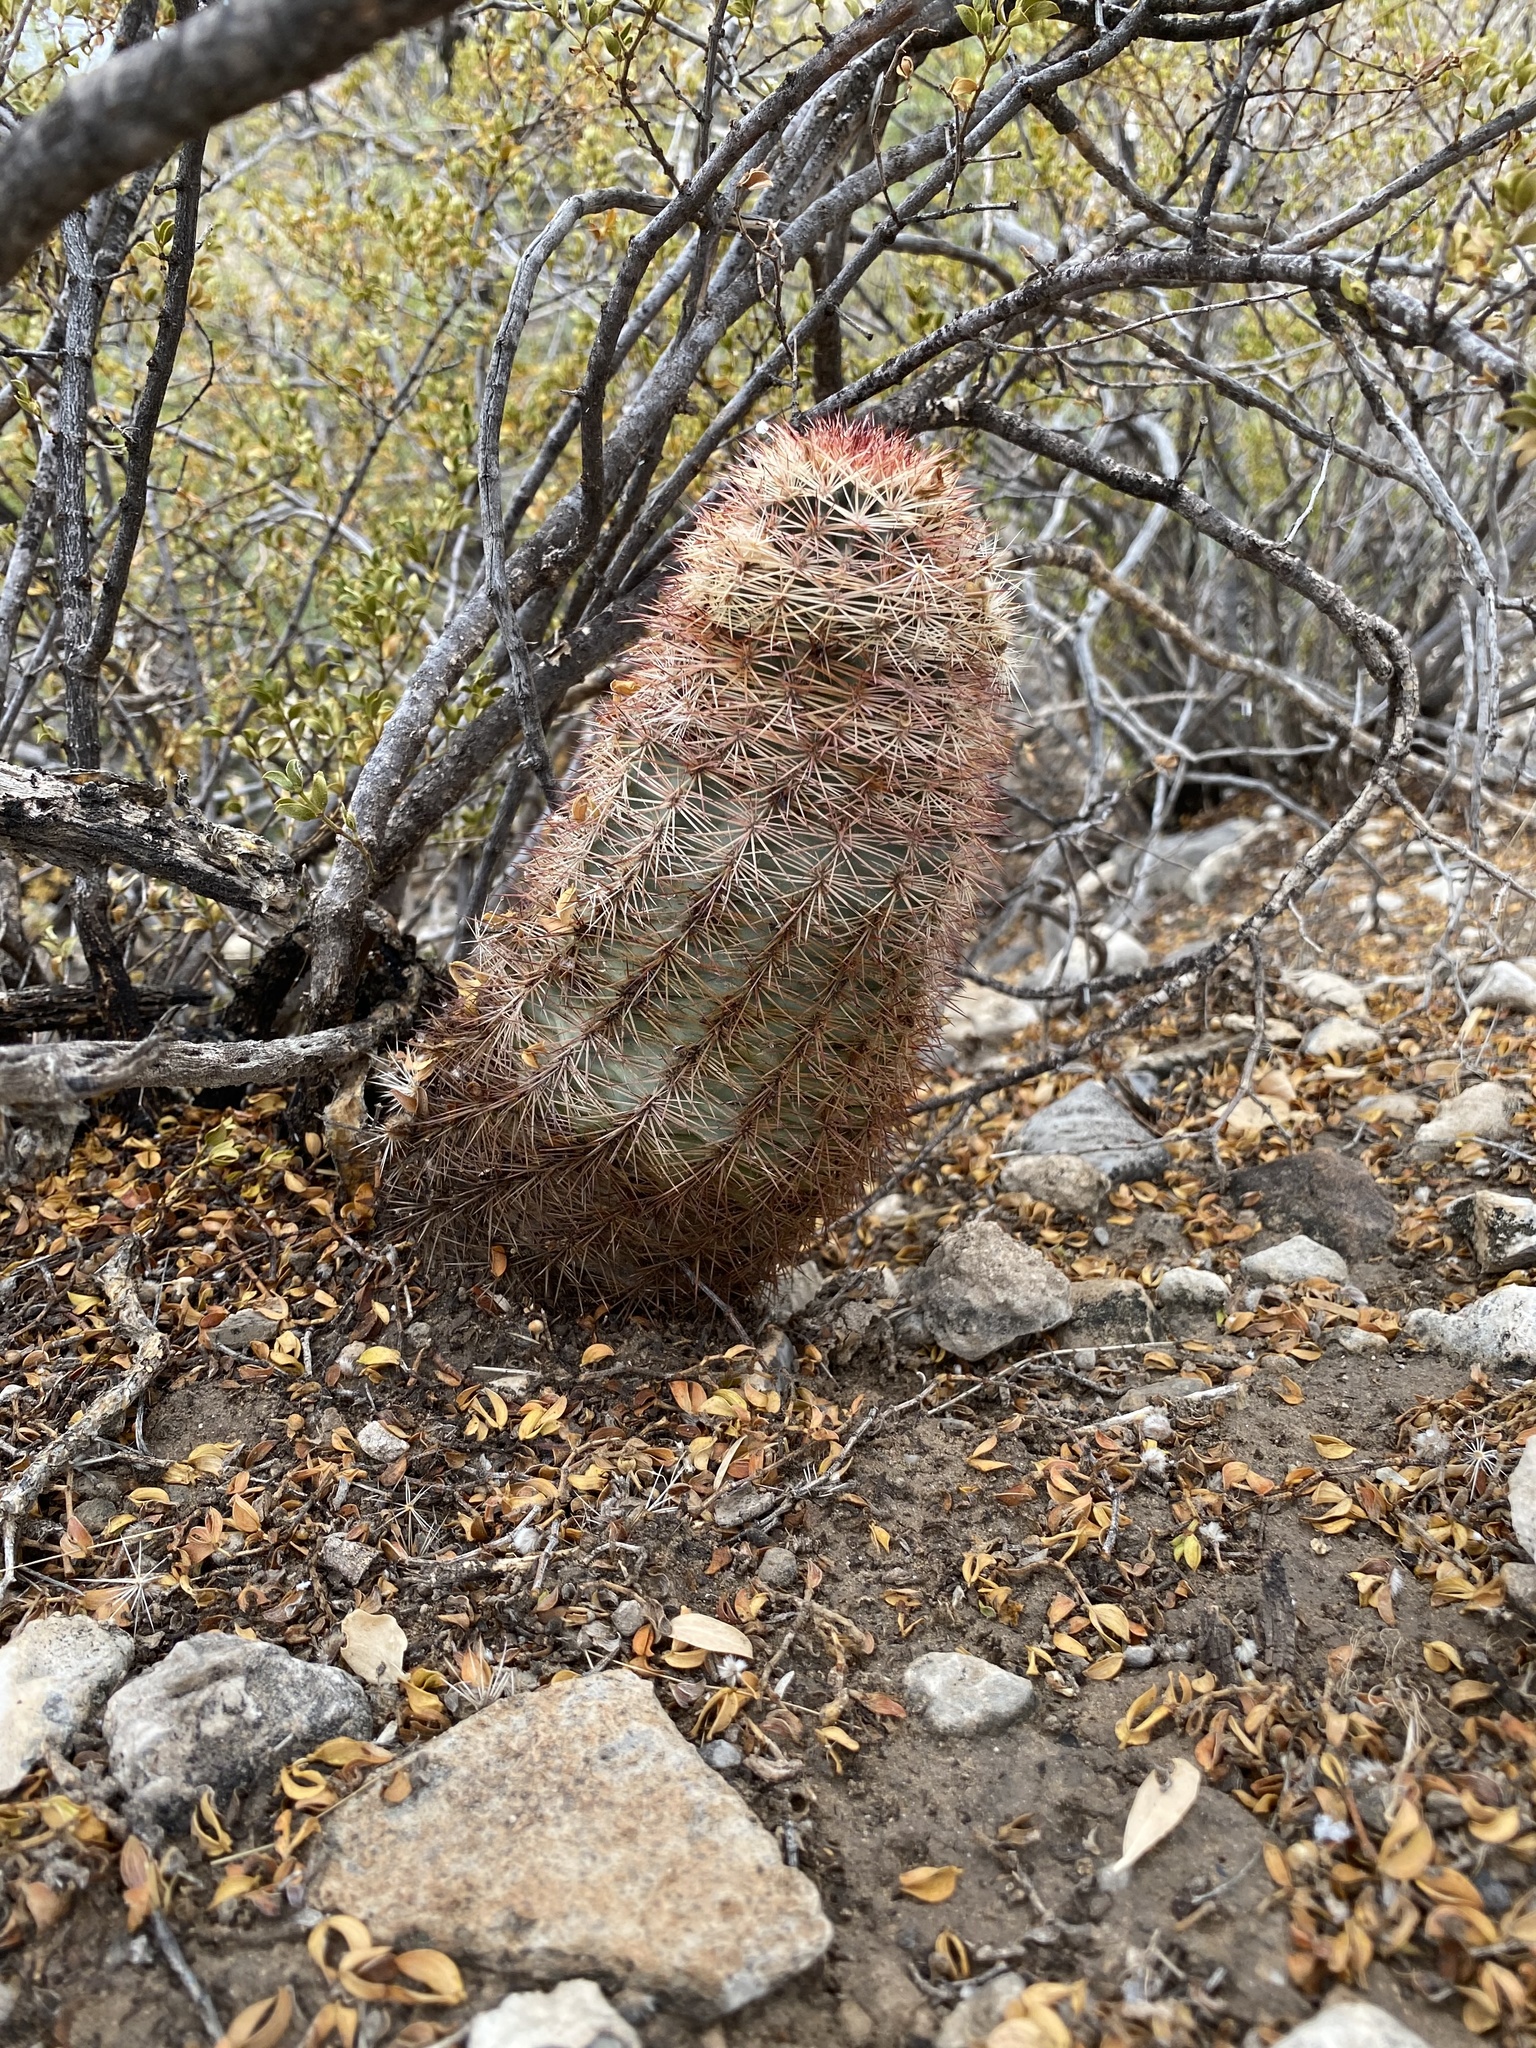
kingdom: Plantae
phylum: Tracheophyta
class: Magnoliopsida
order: Caryophyllales
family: Cactaceae
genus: Echinocereus
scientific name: Echinocereus dasyacanthus
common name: Spiny hedgehog cactus
